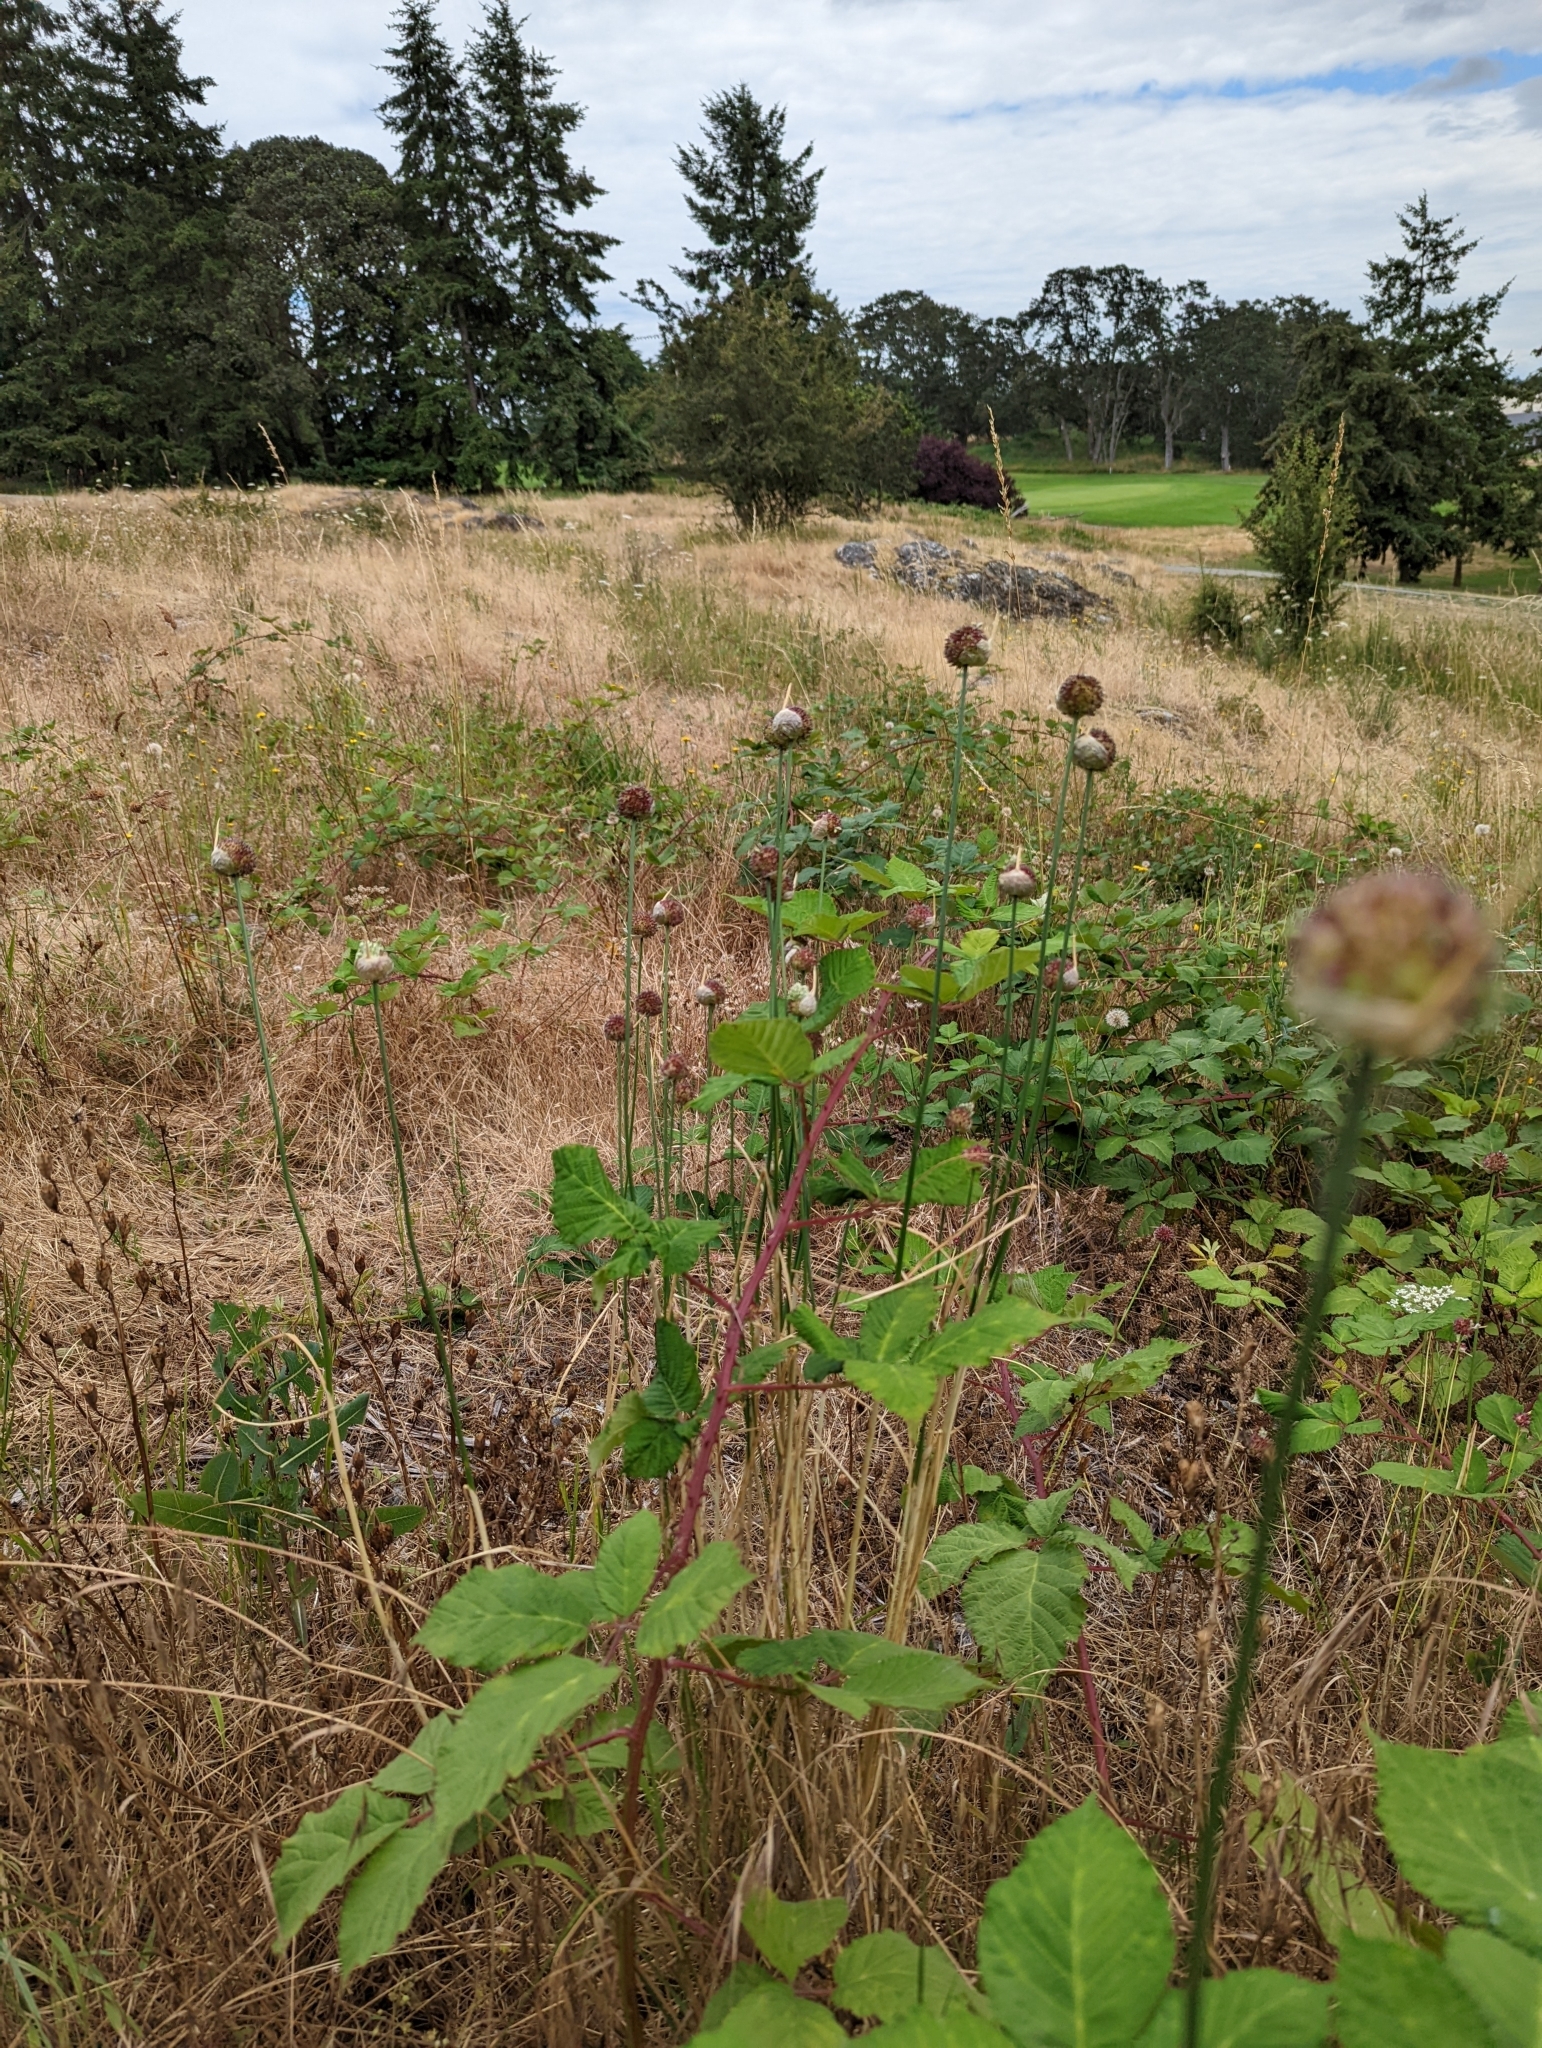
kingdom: Plantae
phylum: Tracheophyta
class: Liliopsida
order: Asparagales
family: Amaryllidaceae
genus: Allium
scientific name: Allium vineale
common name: Crow garlic
